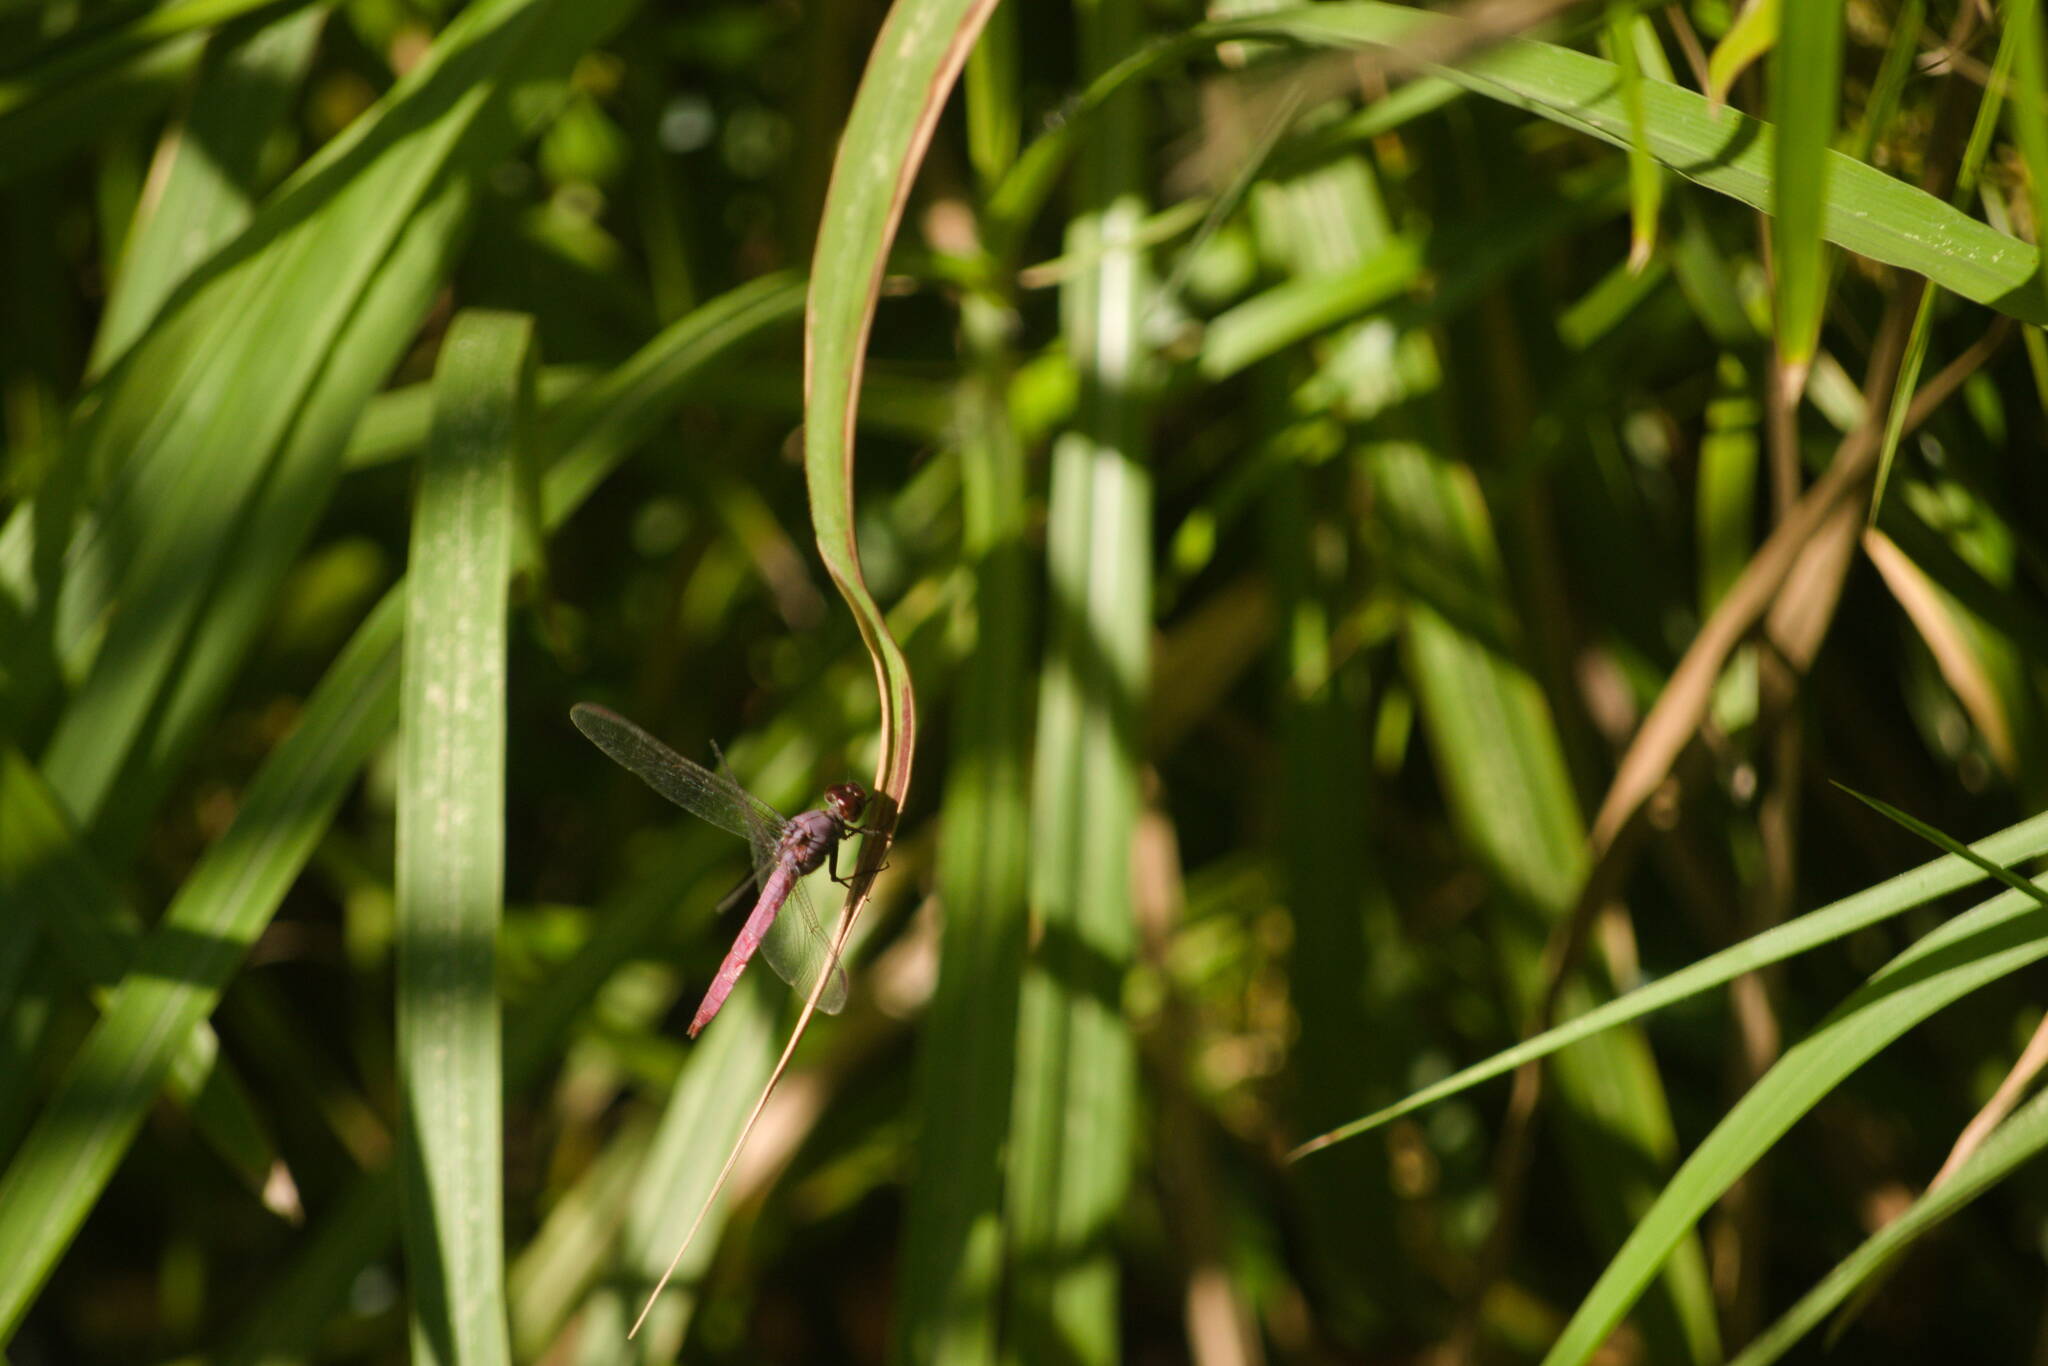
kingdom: Animalia
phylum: Arthropoda
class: Insecta
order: Odonata
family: Libellulidae
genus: Orthemis
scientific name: Orthemis ferruginea
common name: Roseate skimmer
